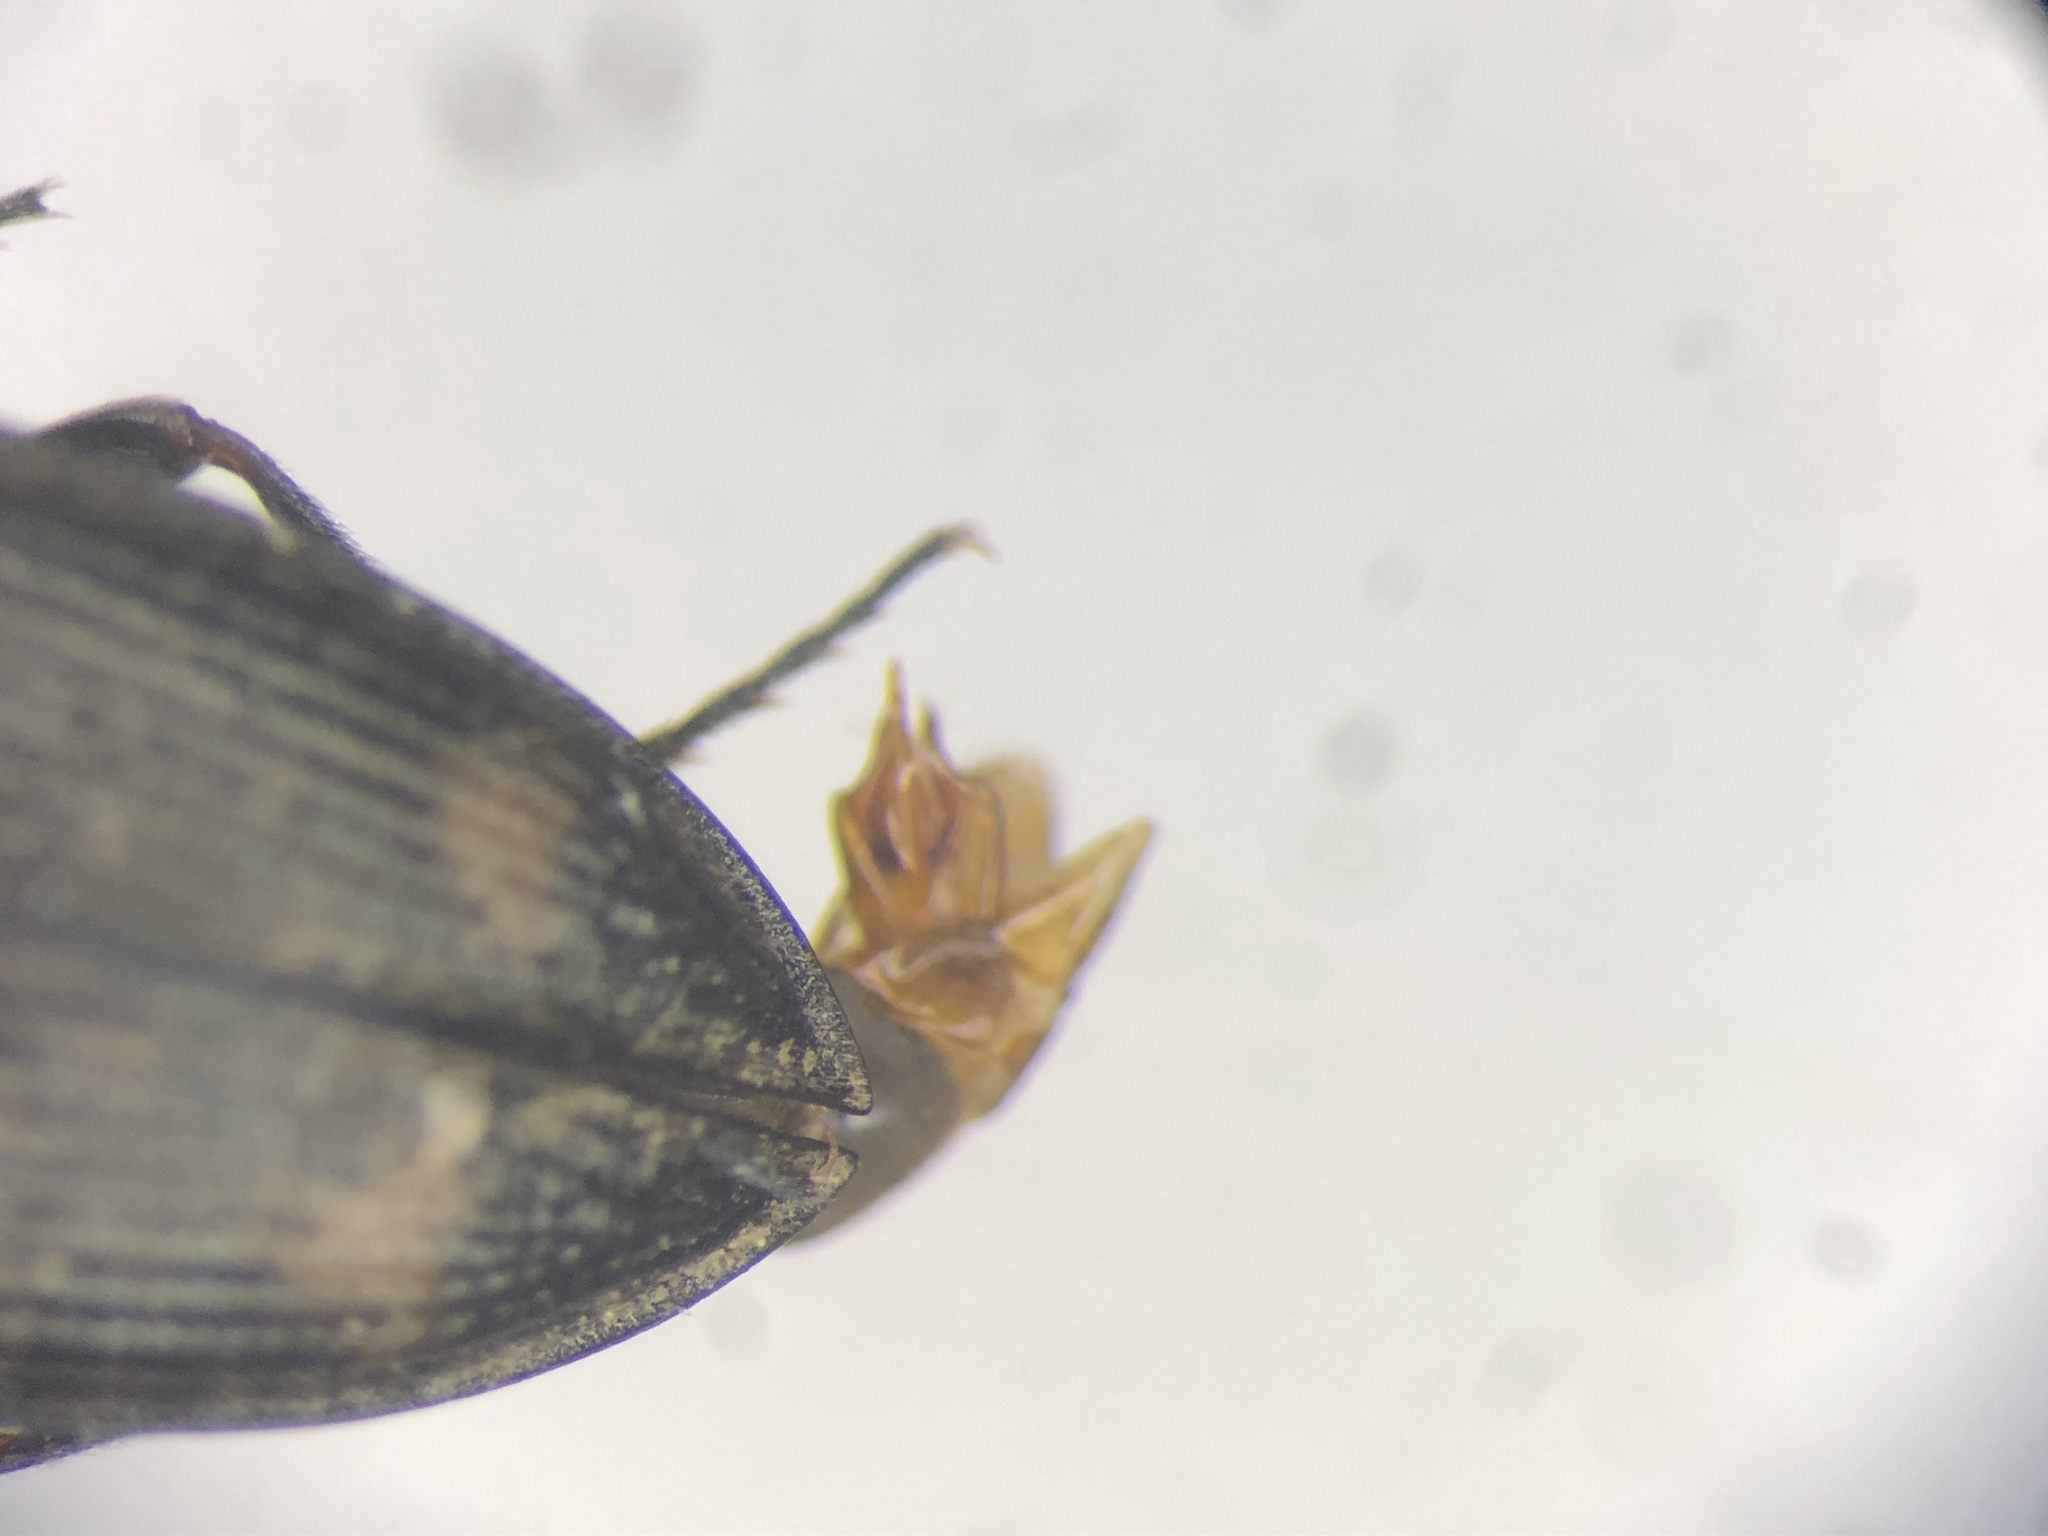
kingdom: Animalia
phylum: Arthropoda
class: Insecta
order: Coleoptera
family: Elateridae
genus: Paracardiophorus
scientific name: Paracardiophorus propinquus
